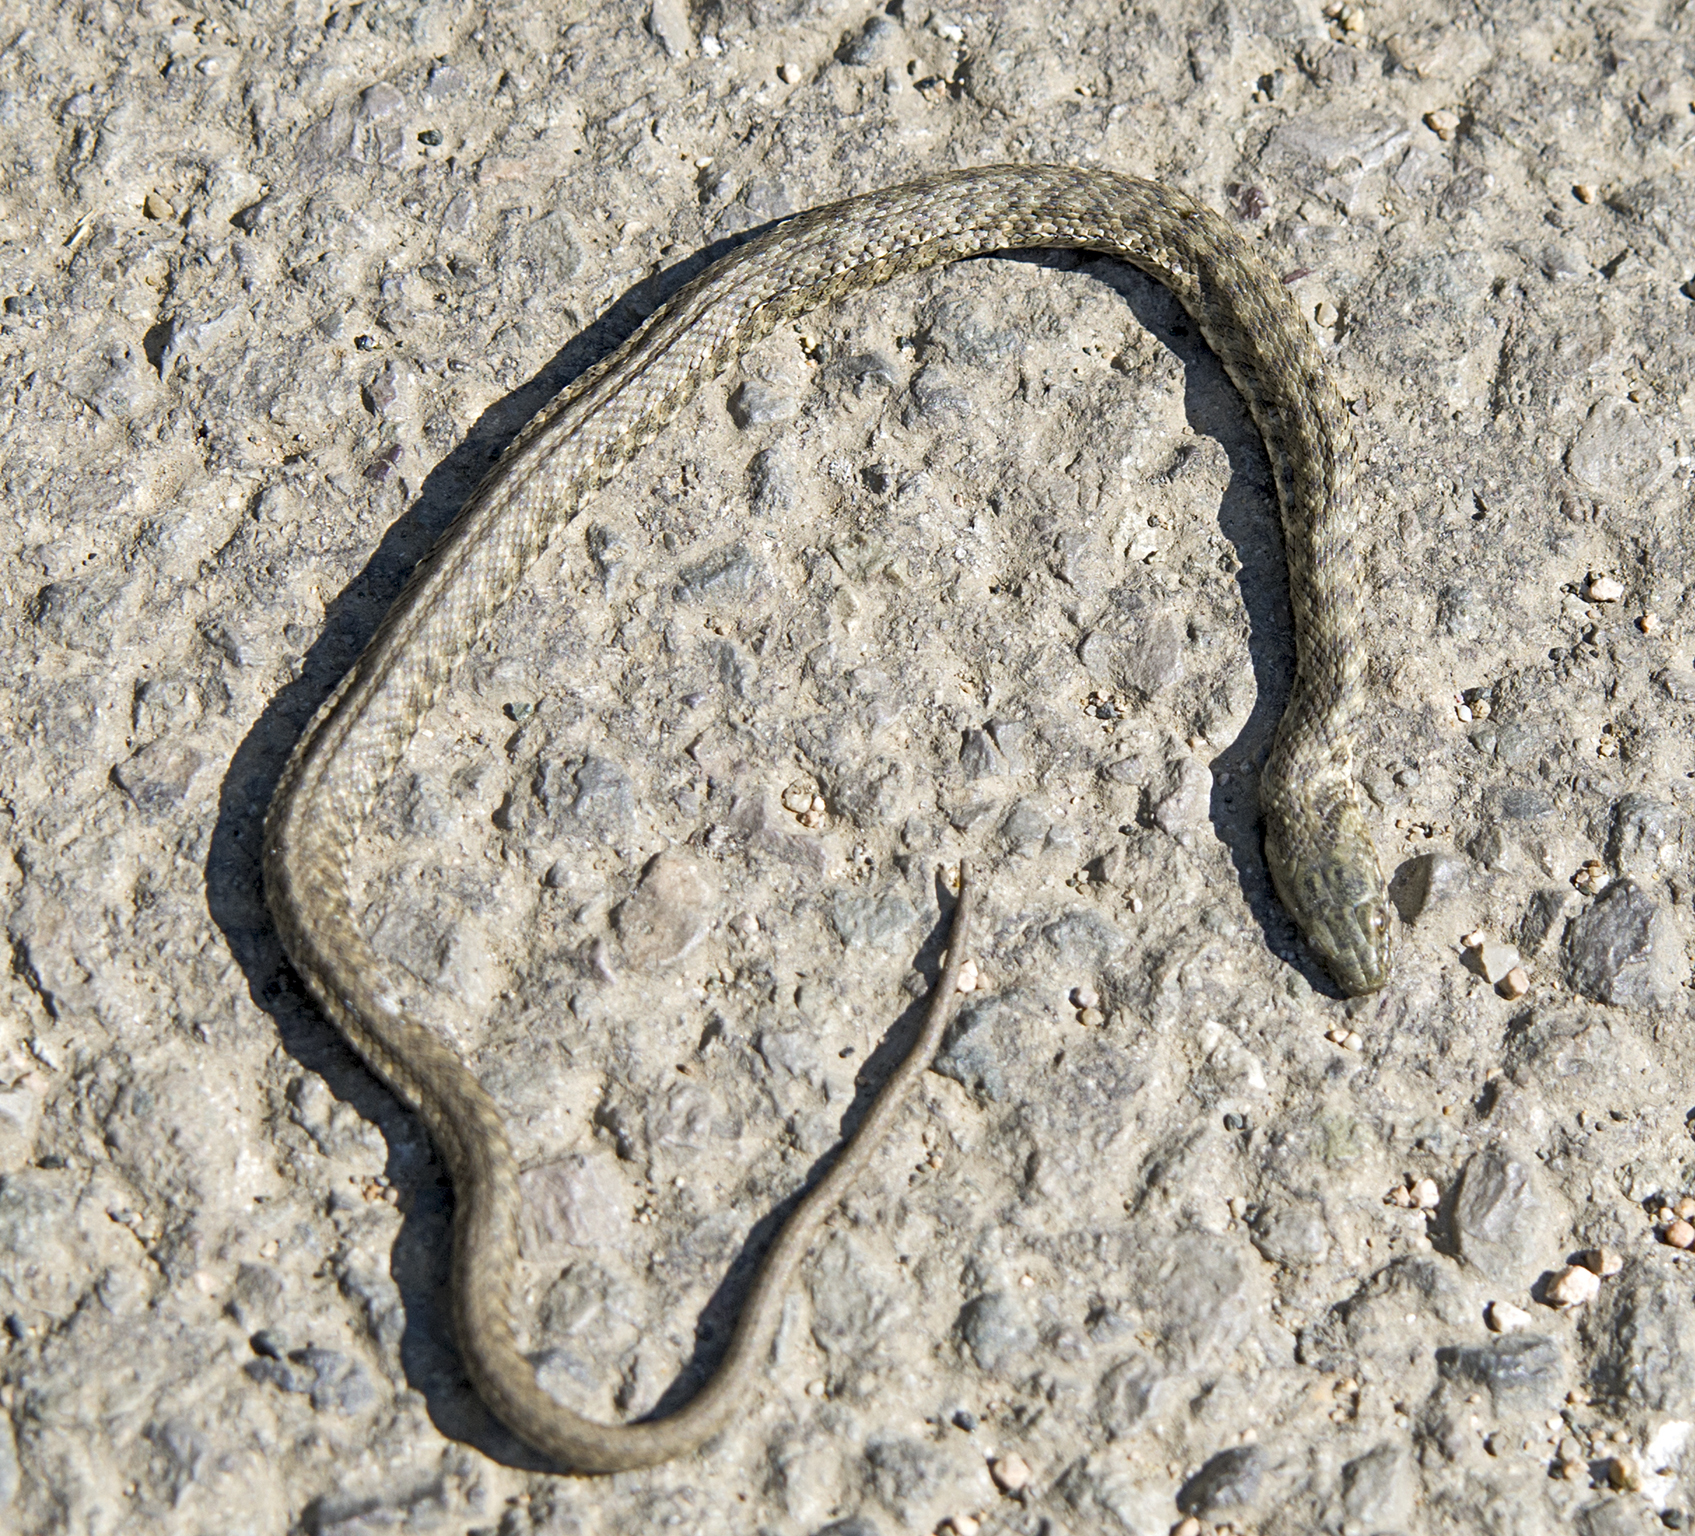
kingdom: Animalia
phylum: Chordata
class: Squamata
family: Colubridae
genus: Natrix
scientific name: Natrix tessellata
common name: Dice snake
